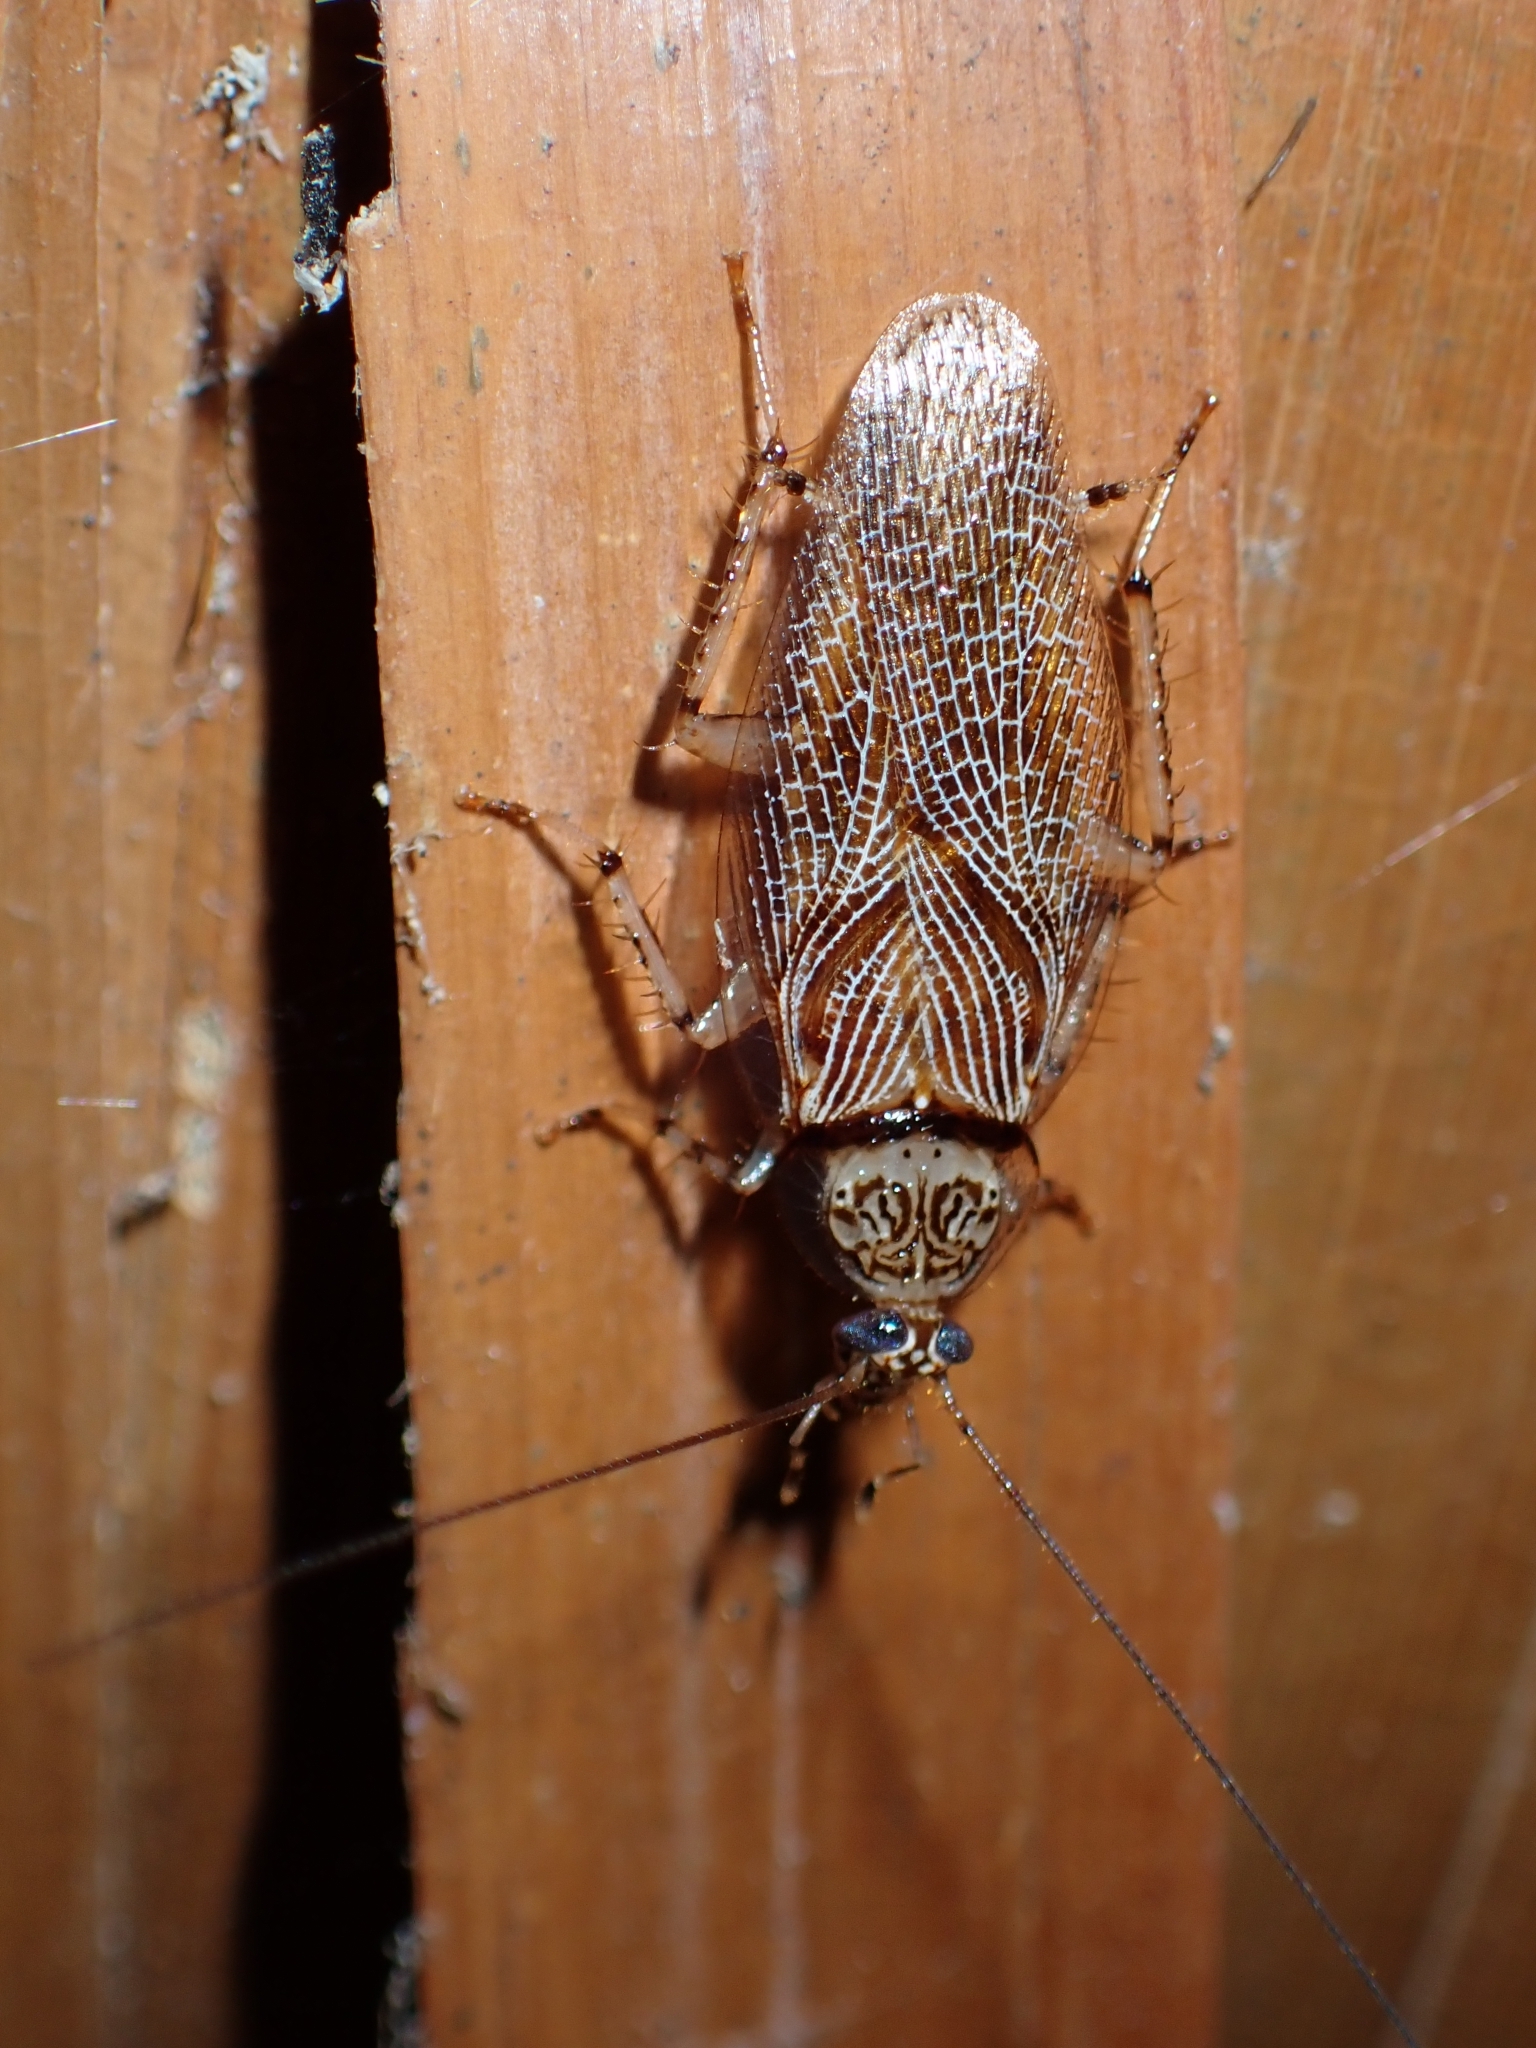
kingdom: Animalia
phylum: Arthropoda
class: Insecta
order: Blattodea
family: Ectobiidae
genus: Balta
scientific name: Balta notulata
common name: Cockroach
